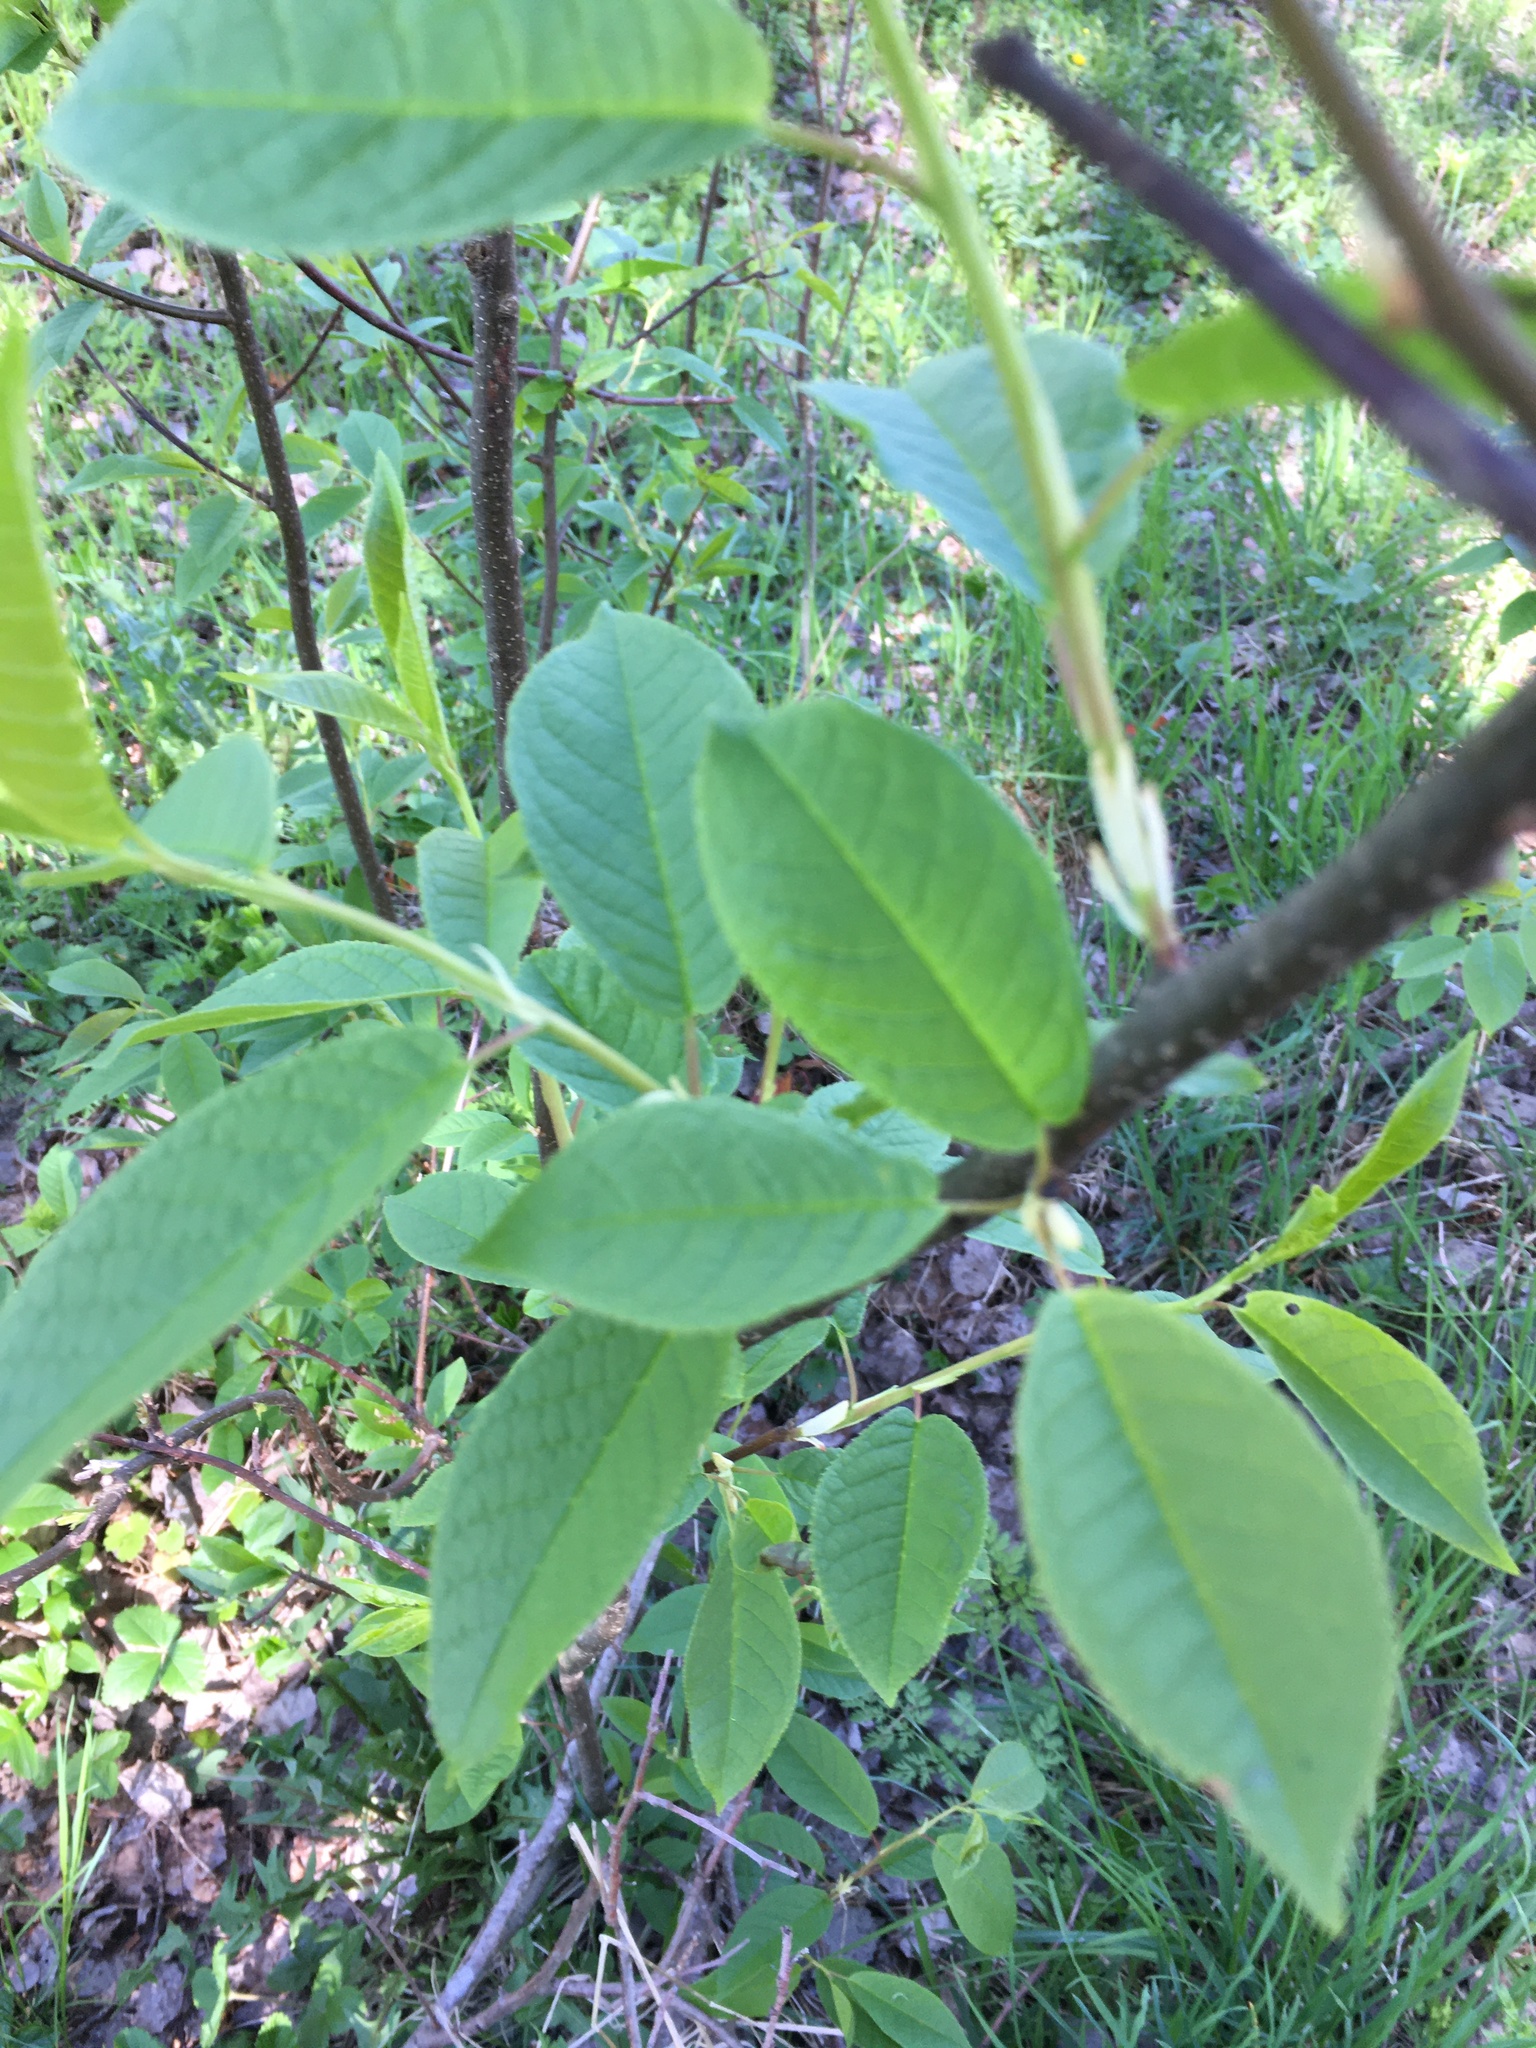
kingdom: Plantae
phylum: Tracheophyta
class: Magnoliopsida
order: Rosales
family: Rosaceae
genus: Prunus
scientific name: Prunus padus
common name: Bird cherry
